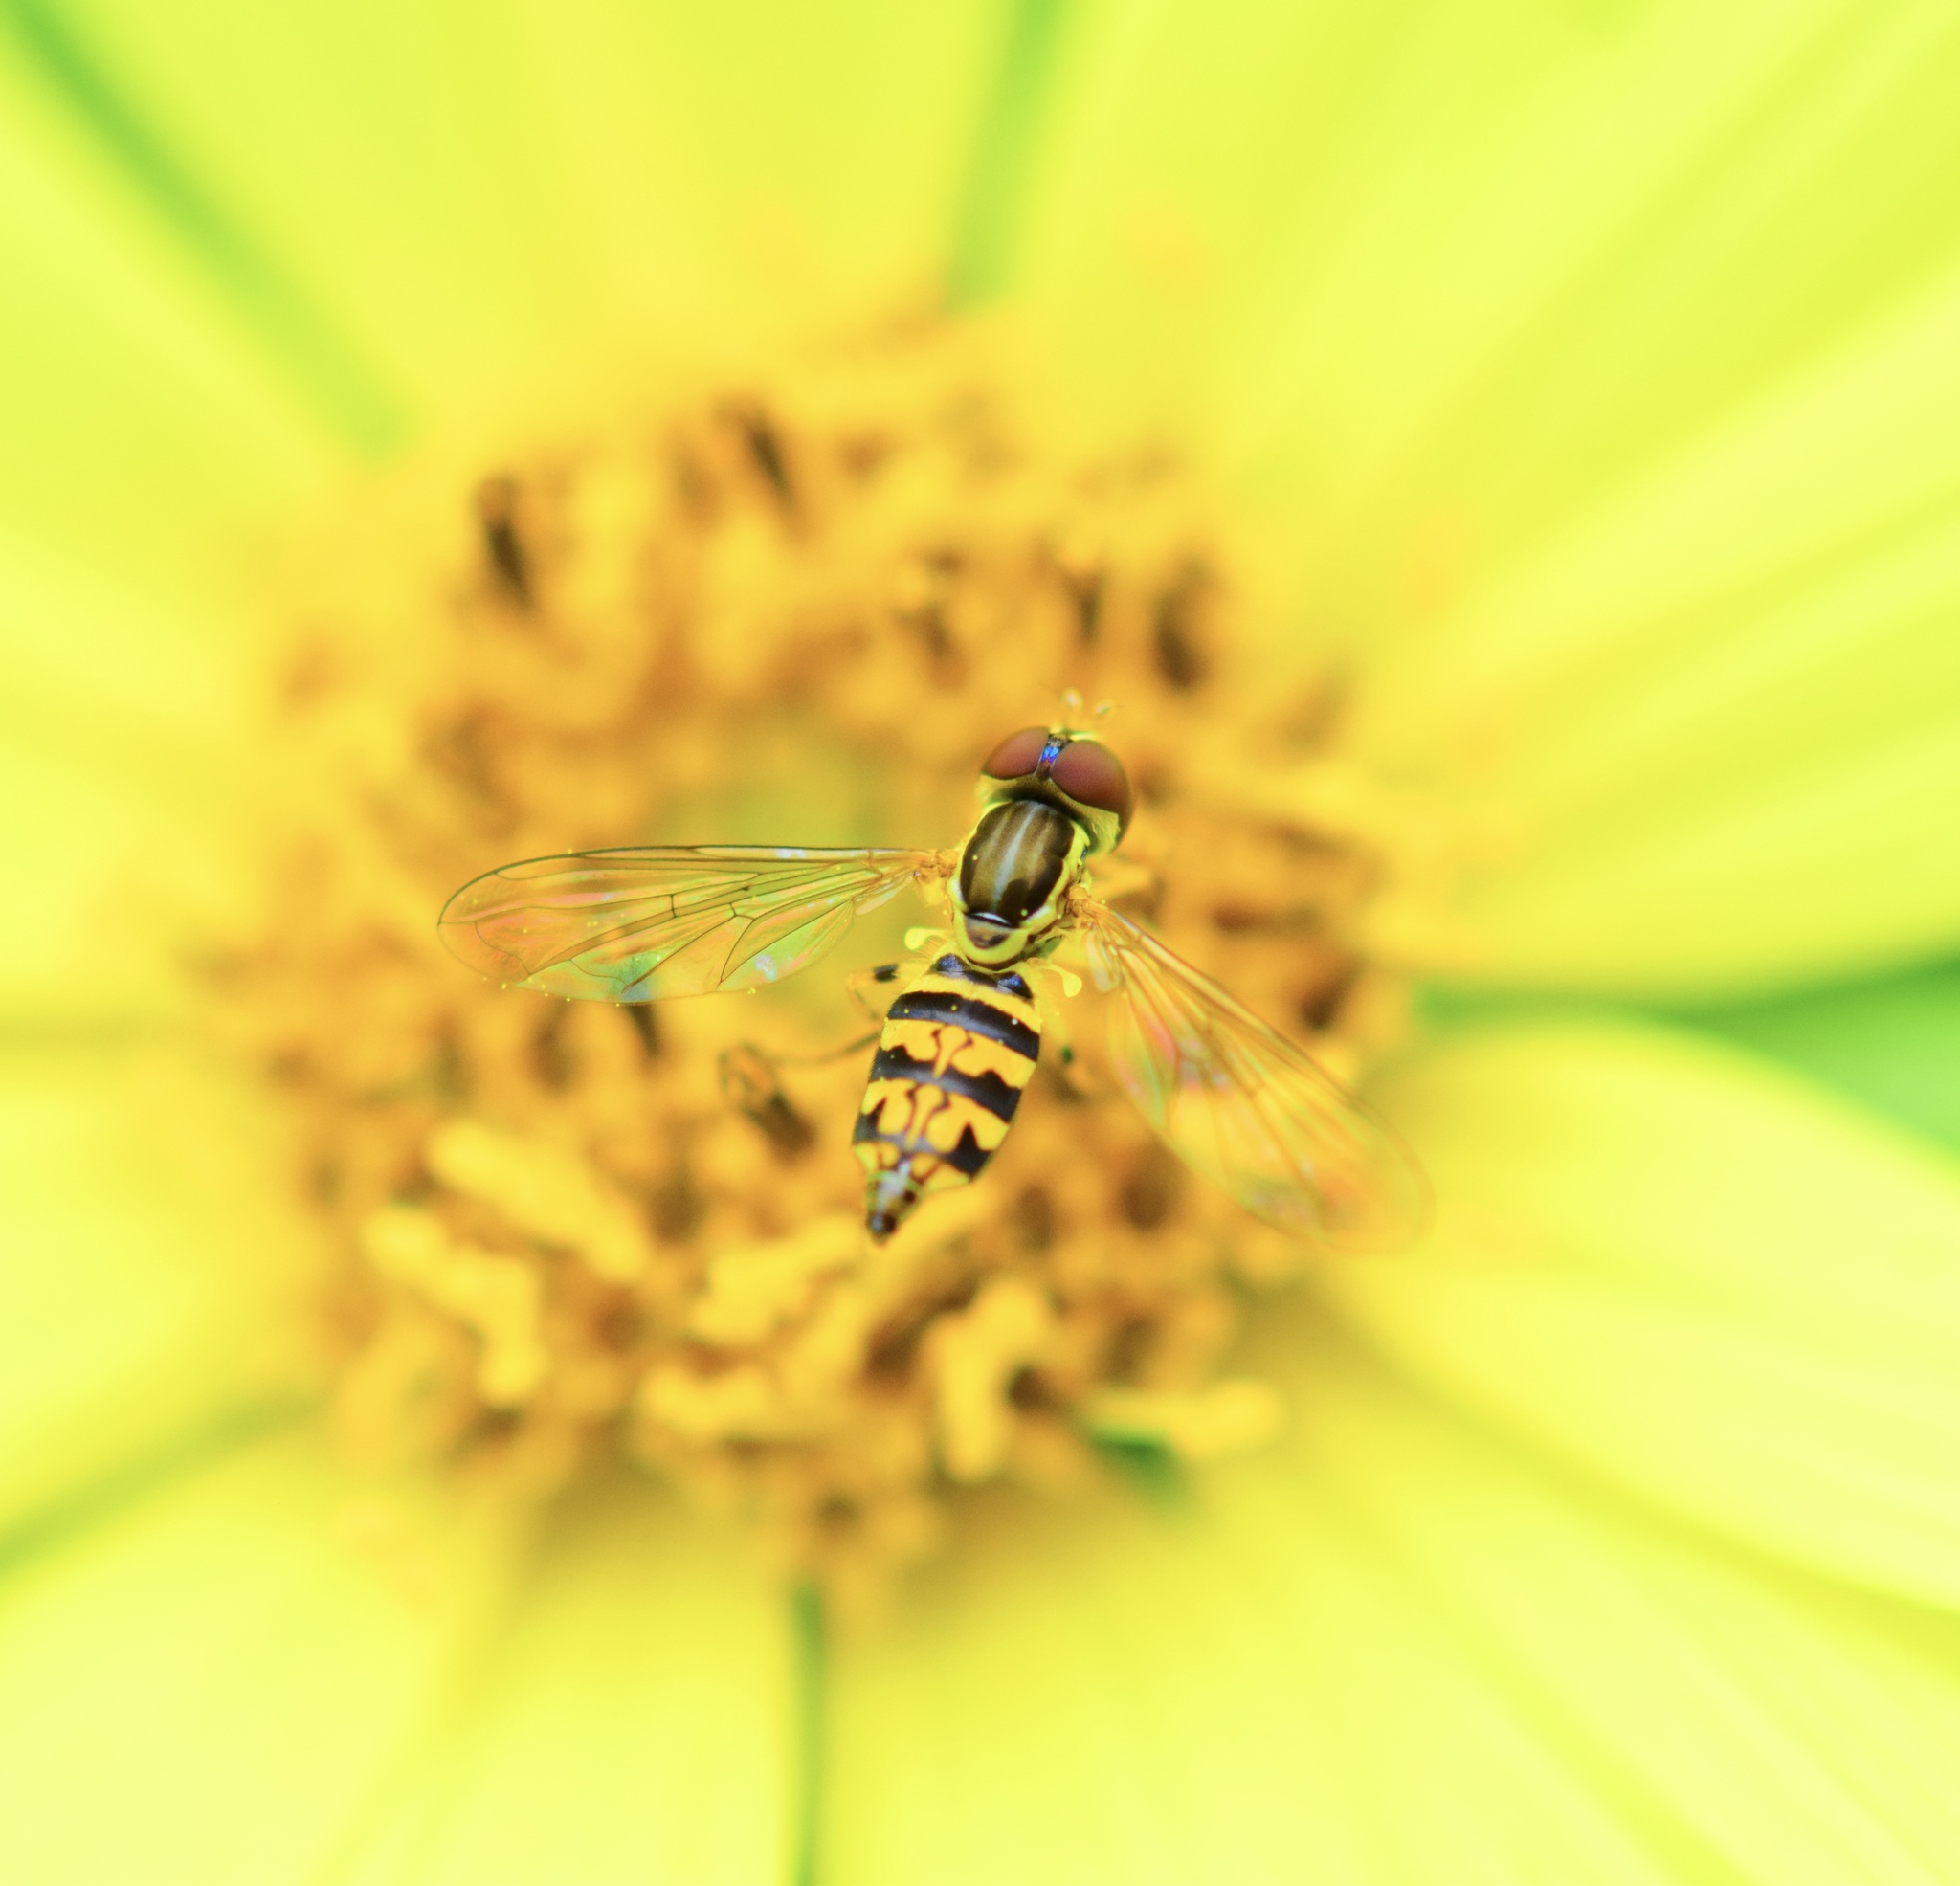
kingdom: Animalia
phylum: Arthropoda
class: Insecta
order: Diptera
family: Syrphidae
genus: Toxomerus
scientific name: Toxomerus geminatus
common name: Eastern calligrapher
